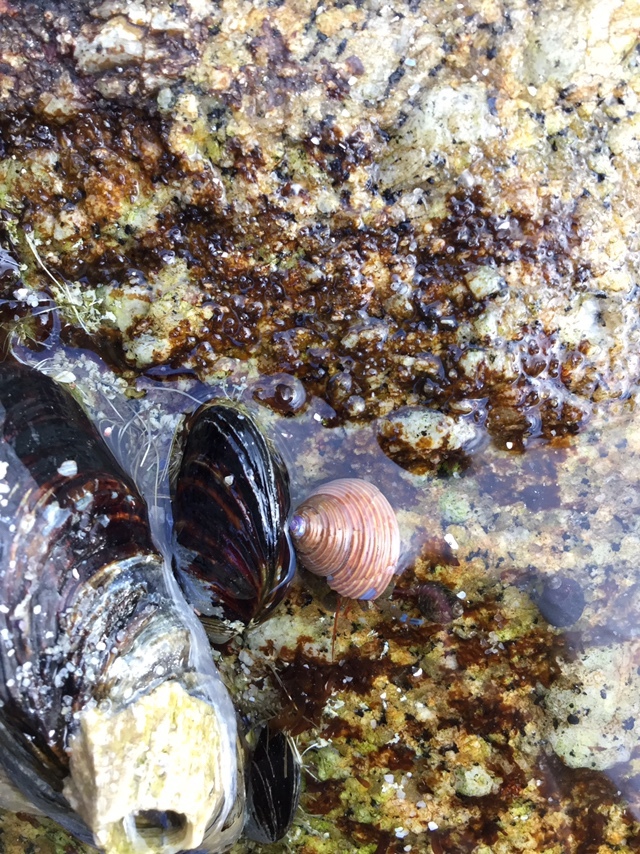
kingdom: Animalia
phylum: Mollusca
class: Gastropoda
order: Trochida
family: Calliostomatidae
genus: Calliostoma
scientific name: Calliostoma ligatum
